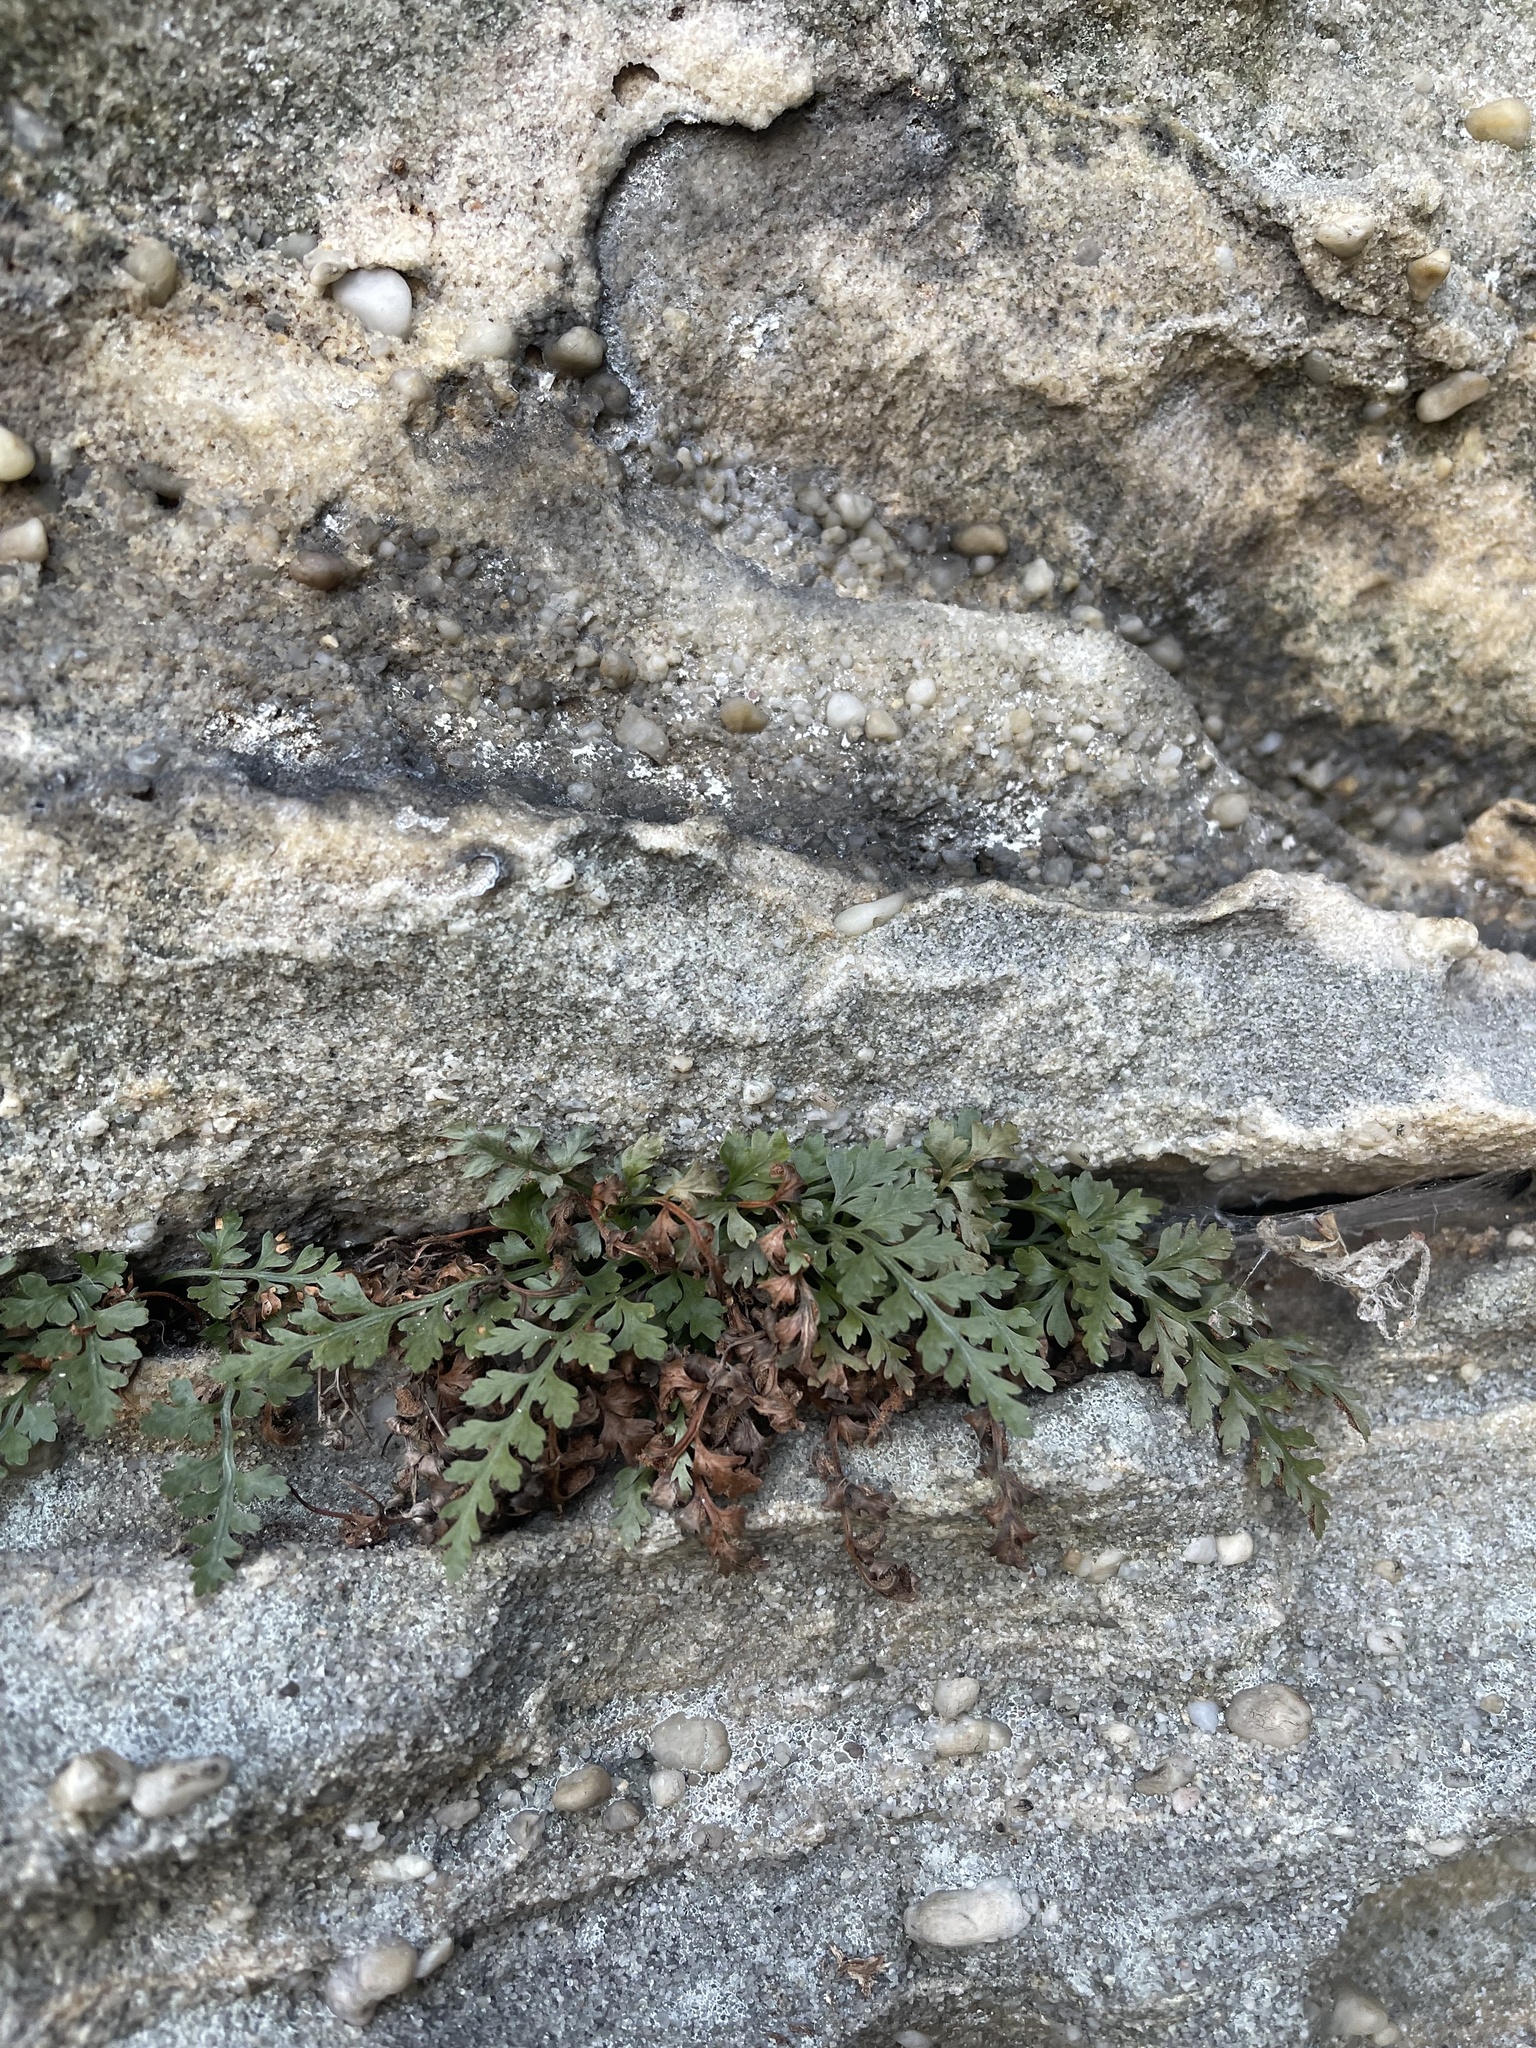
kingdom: Plantae
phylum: Tracheophyta
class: Polypodiopsida
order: Polypodiales
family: Aspleniaceae
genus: Asplenium
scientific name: Asplenium montanum
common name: Mountain spleenwort
